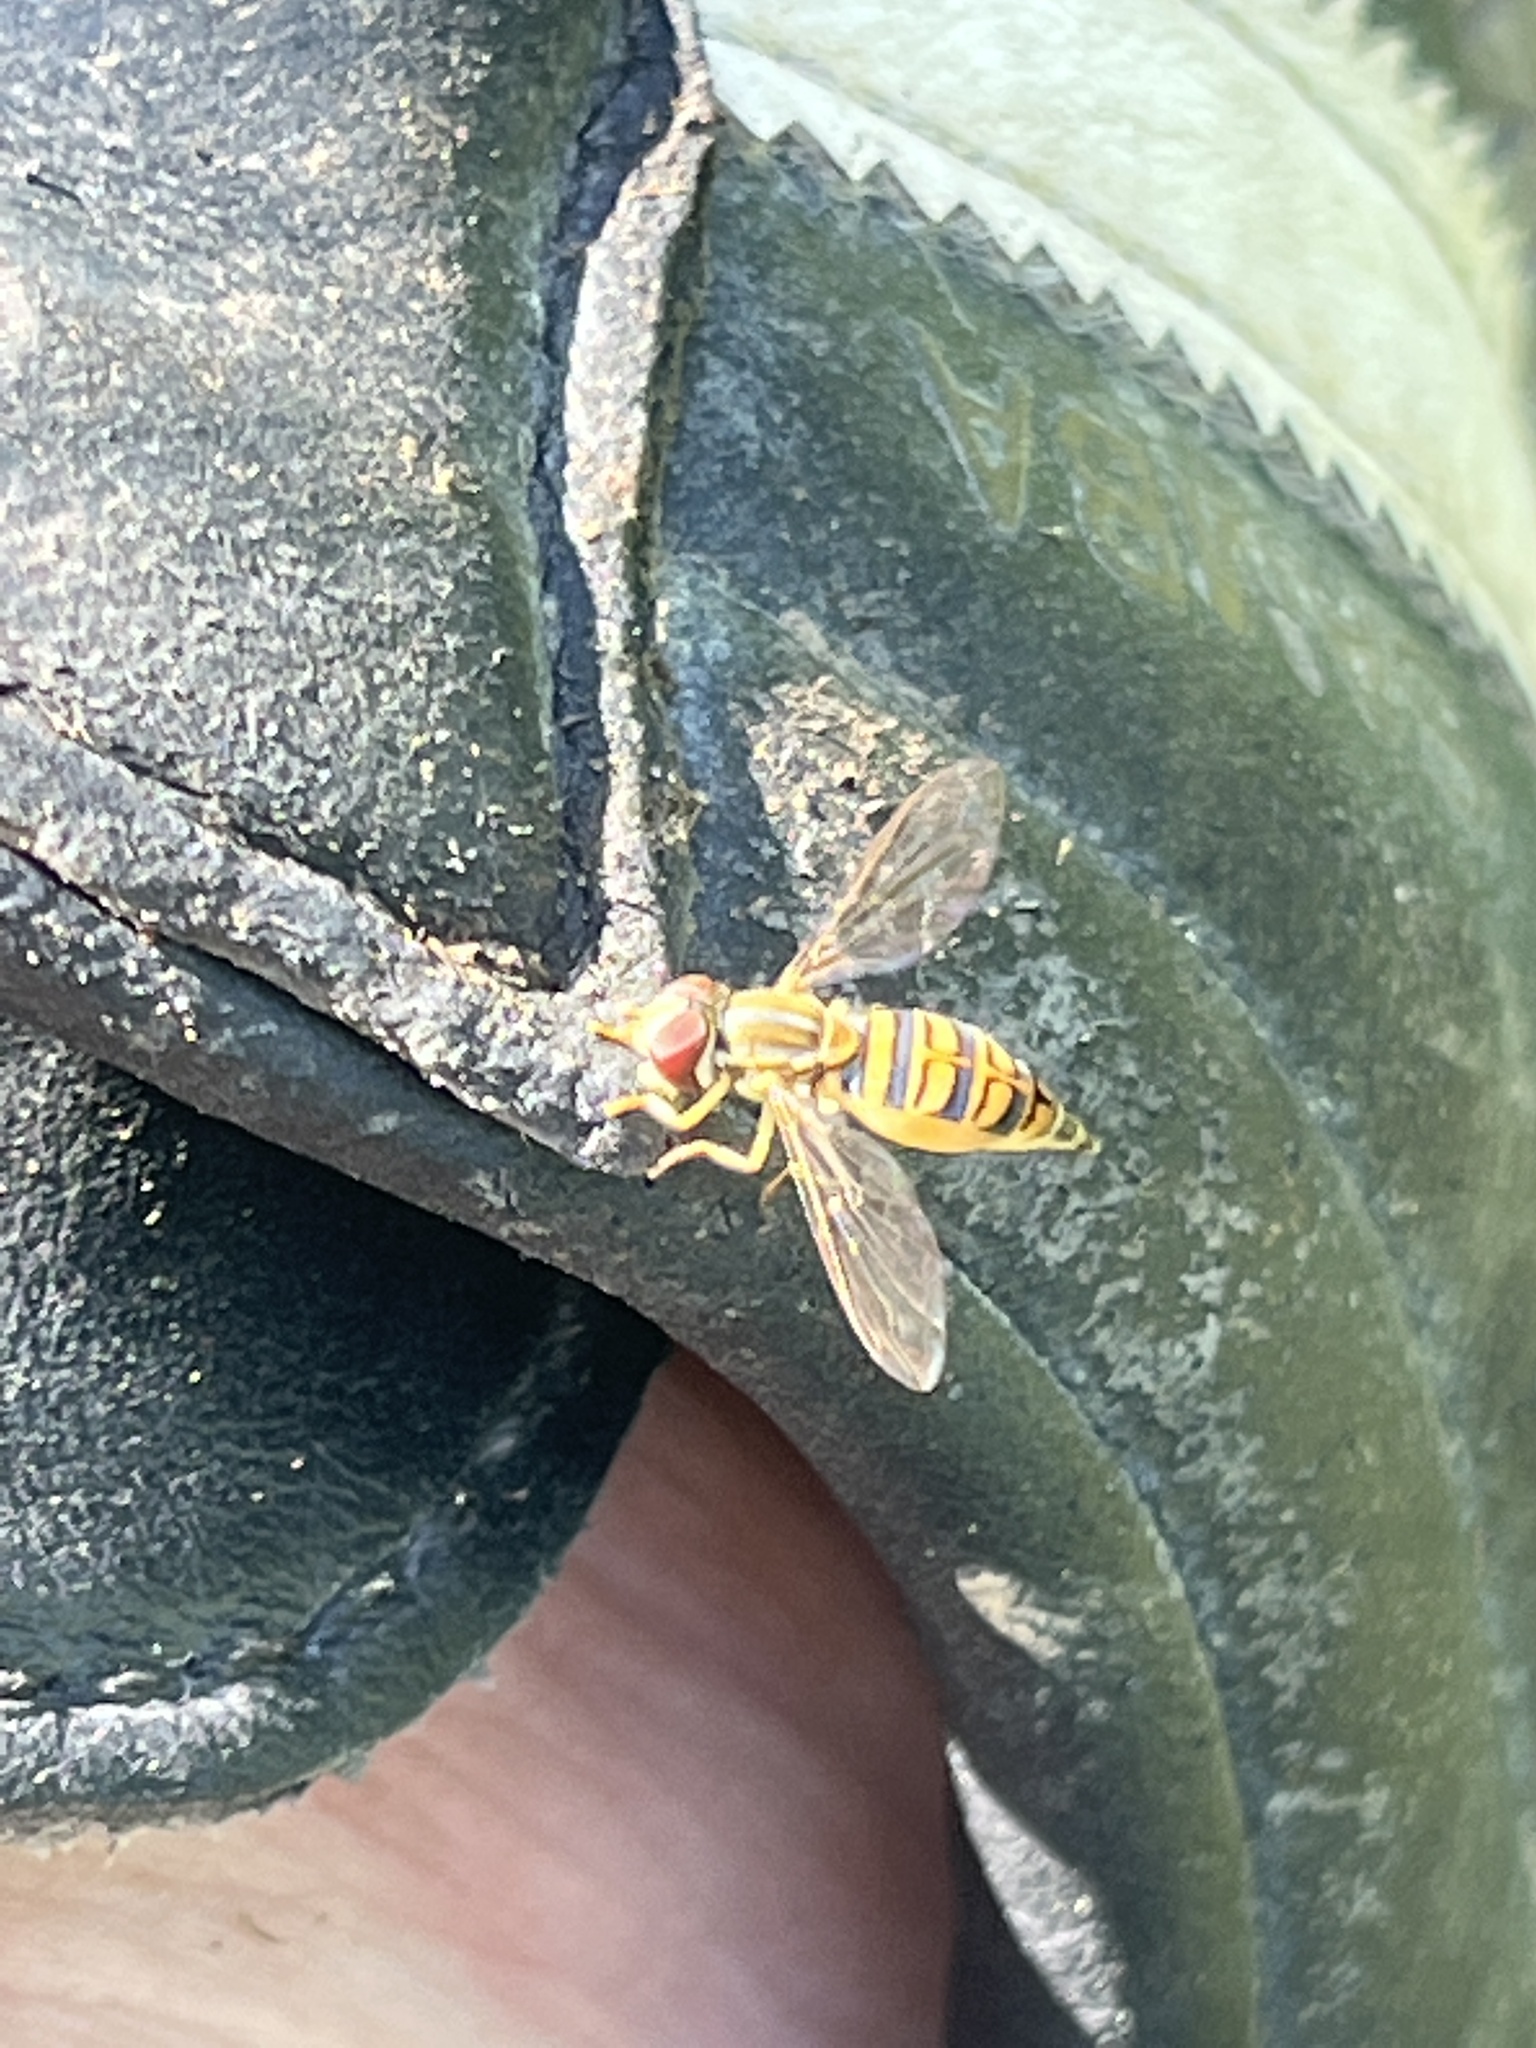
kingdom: Animalia
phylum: Arthropoda
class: Insecta
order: Diptera
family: Syrphidae
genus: Toxomerus
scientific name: Toxomerus politus
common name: Maize calligrapher
